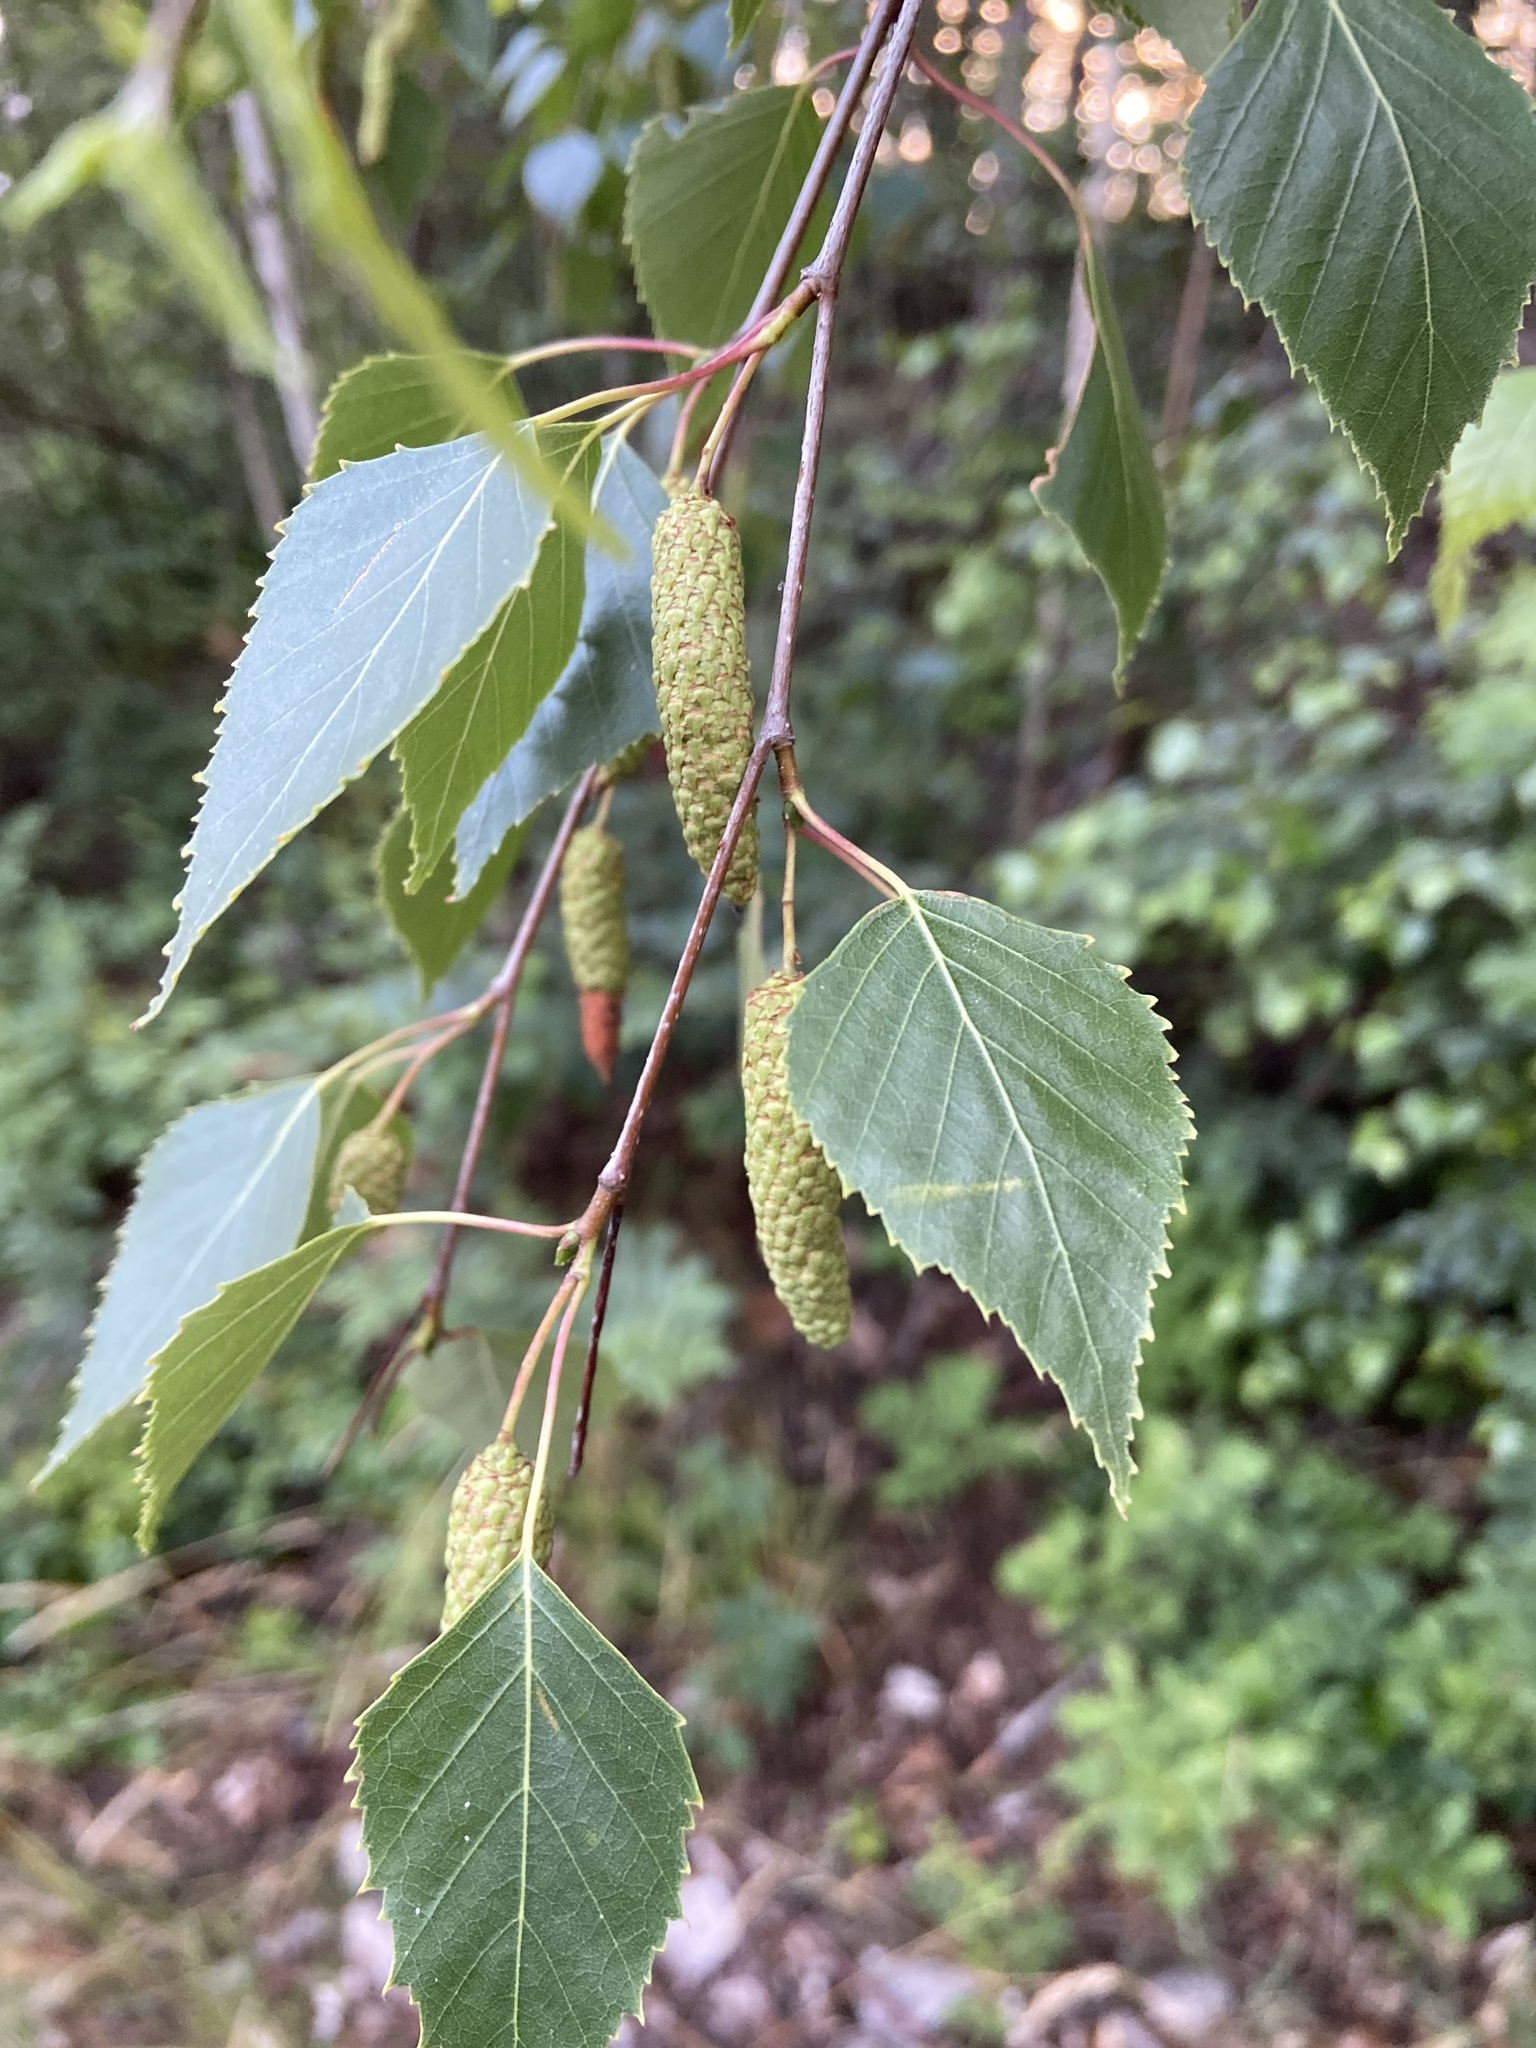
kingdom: Plantae
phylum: Tracheophyta
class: Magnoliopsida
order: Fagales
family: Betulaceae
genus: Betula
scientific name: Betula pendula
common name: Silver birch
